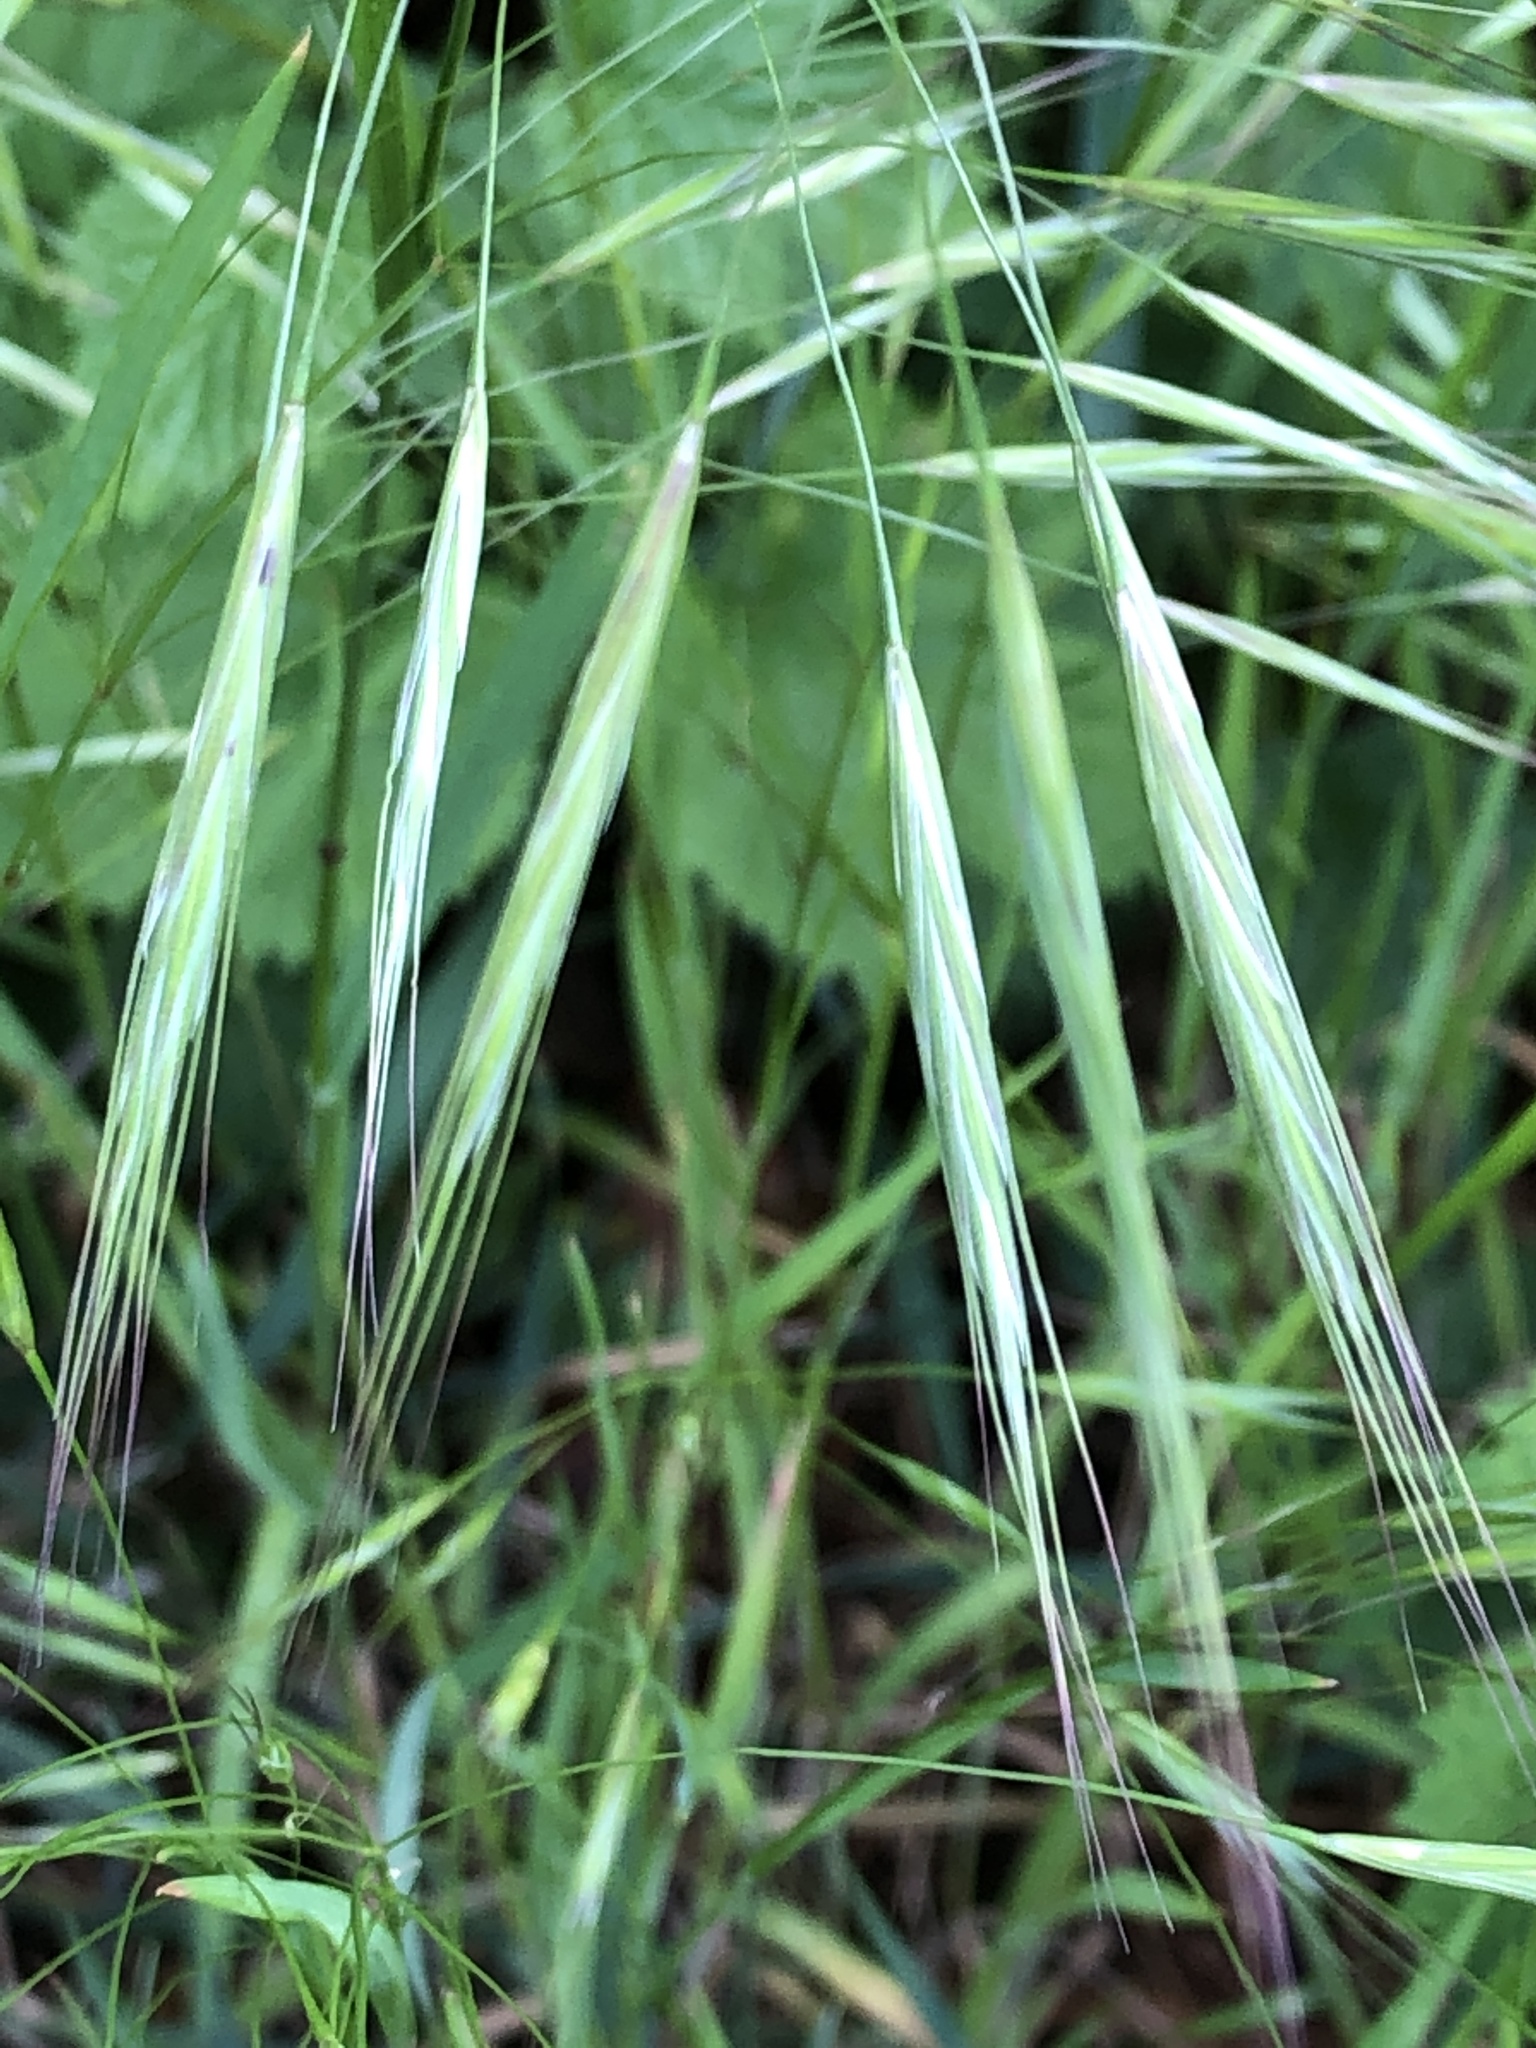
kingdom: Plantae
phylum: Tracheophyta
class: Liliopsida
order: Poales
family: Poaceae
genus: Bromus
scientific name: Bromus sterilis
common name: Poverty brome
